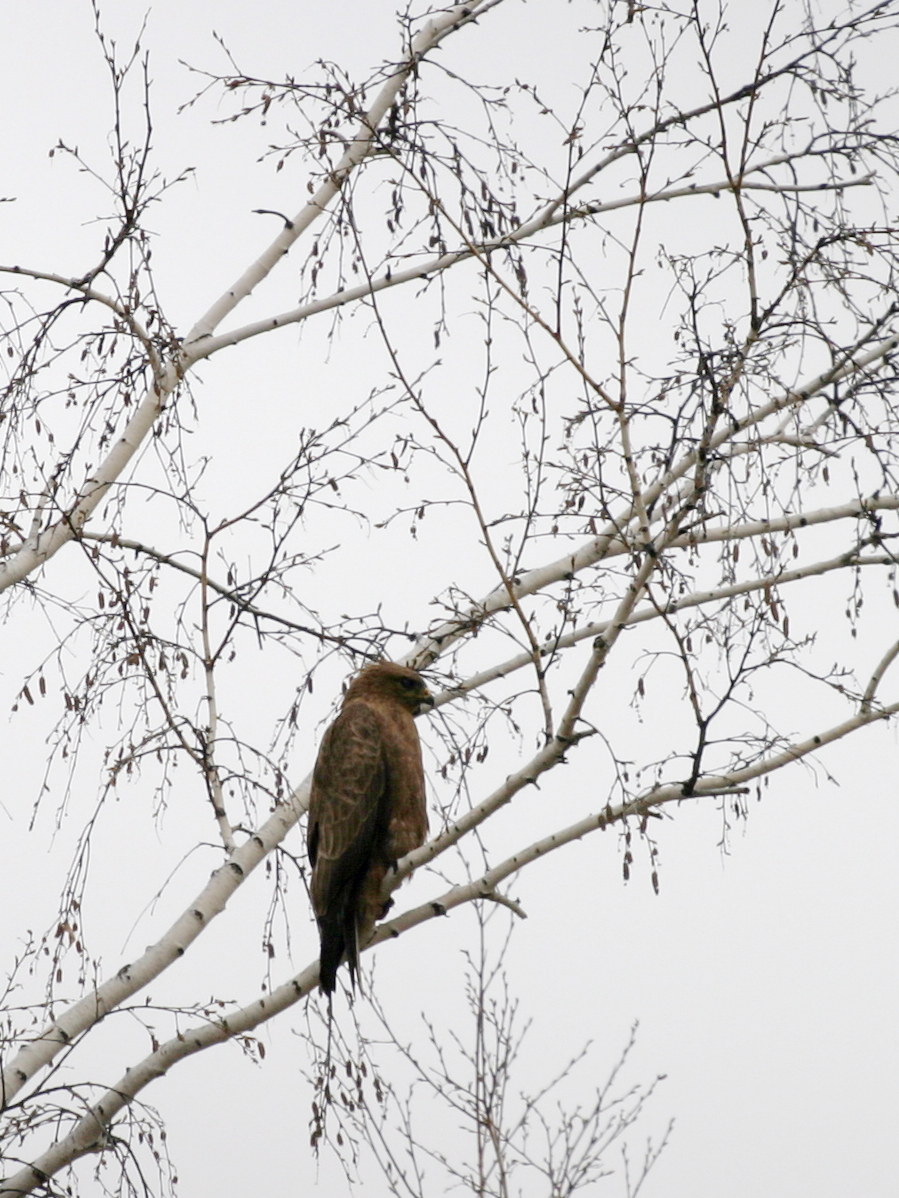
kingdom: Animalia
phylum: Chordata
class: Aves
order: Accipitriformes
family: Accipitridae
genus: Buteo
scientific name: Buteo buteo
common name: Common buzzard
